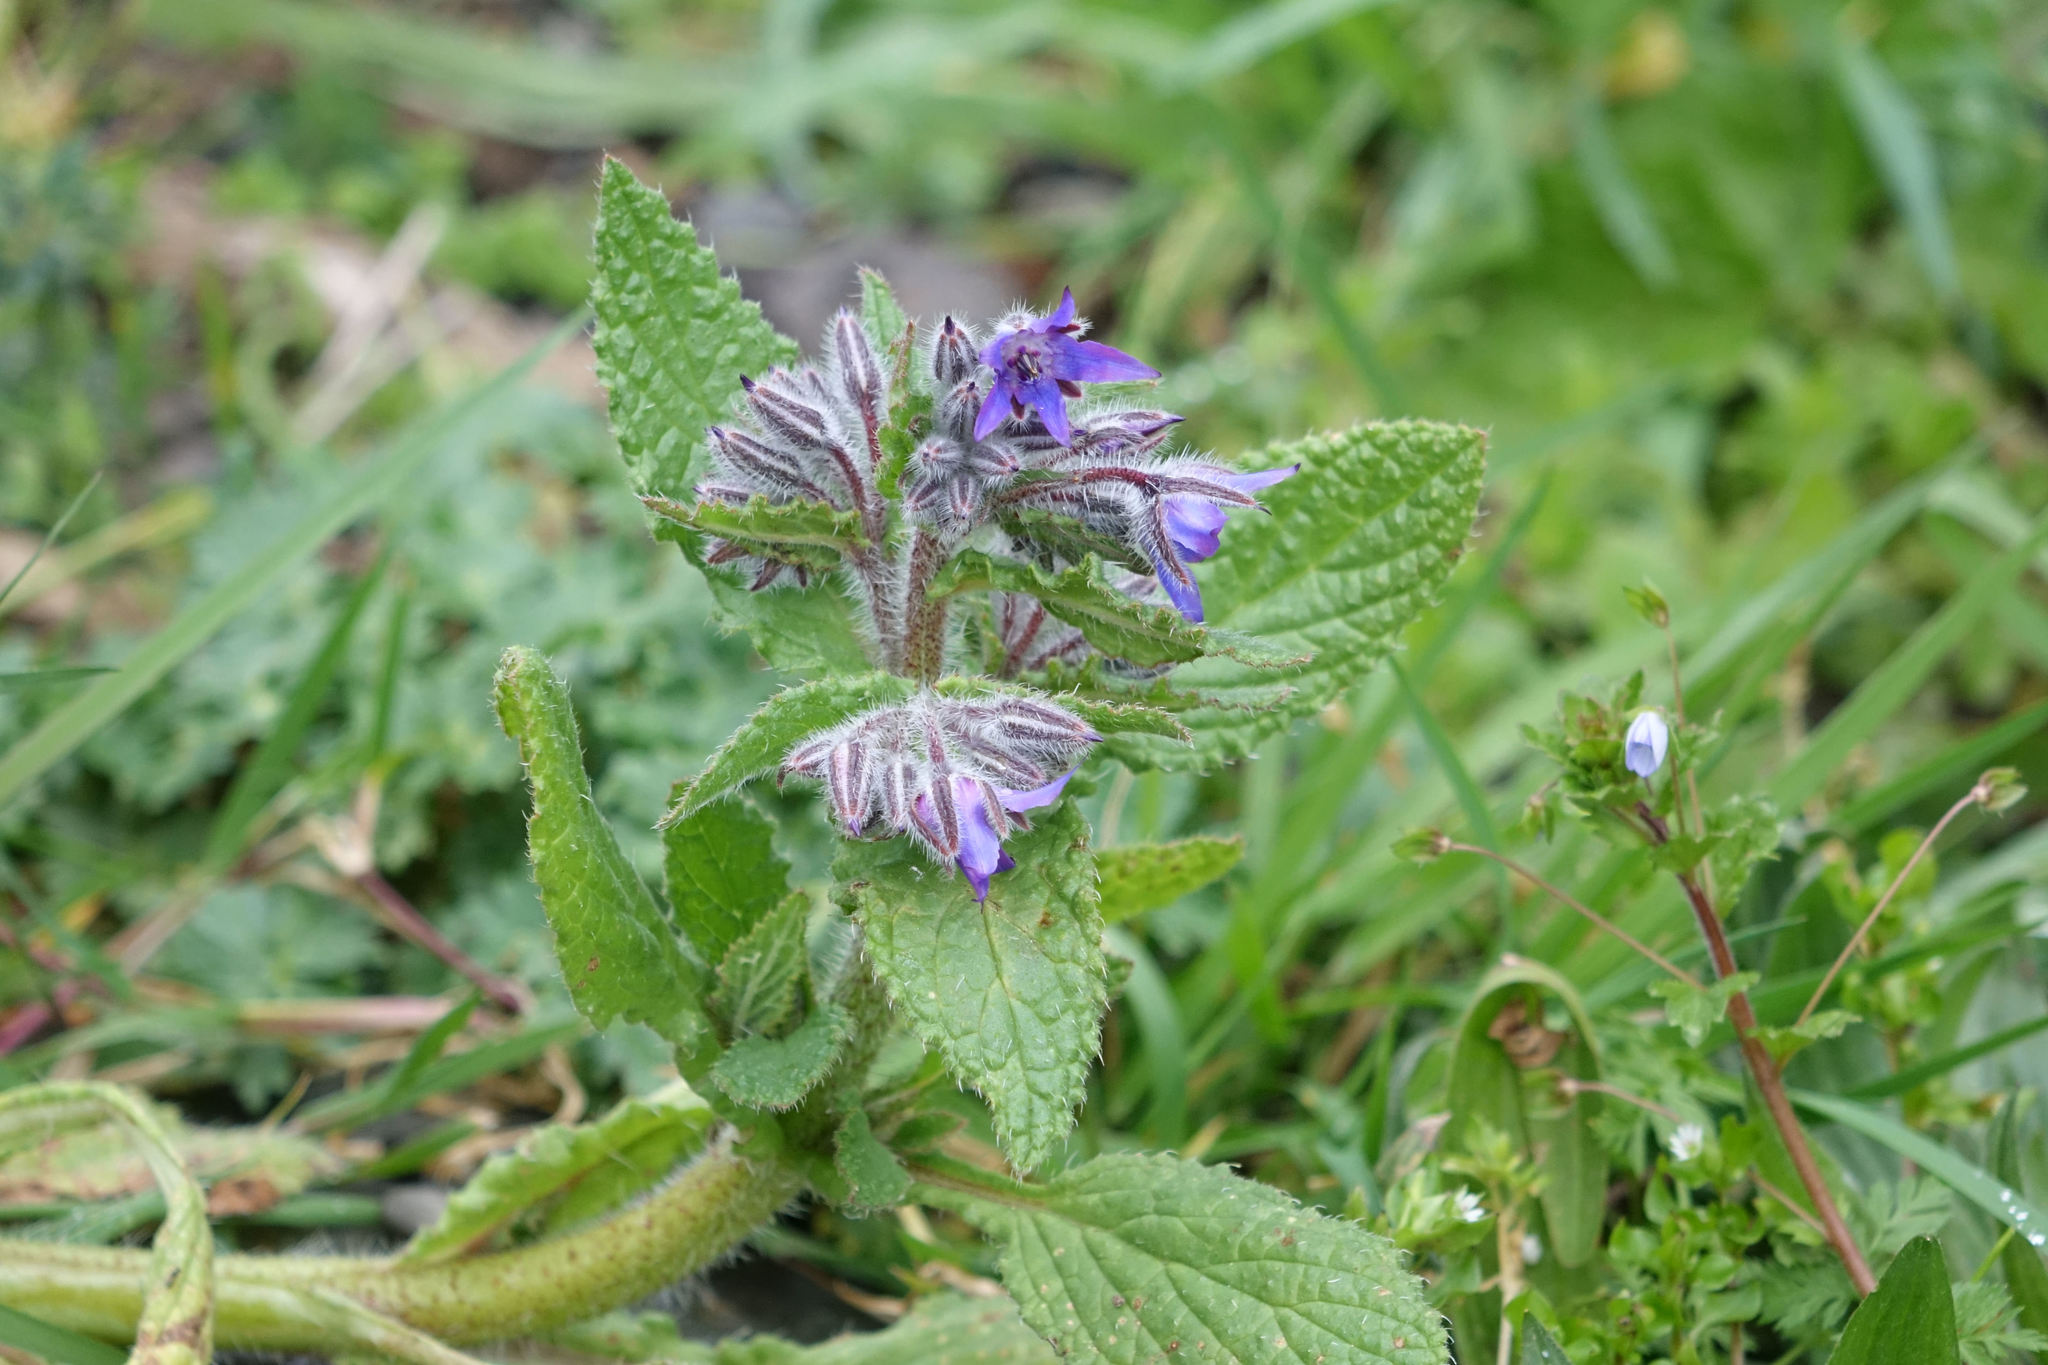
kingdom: Plantae
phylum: Tracheophyta
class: Magnoliopsida
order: Boraginales
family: Boraginaceae
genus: Borago
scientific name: Borago officinalis
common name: Borage
